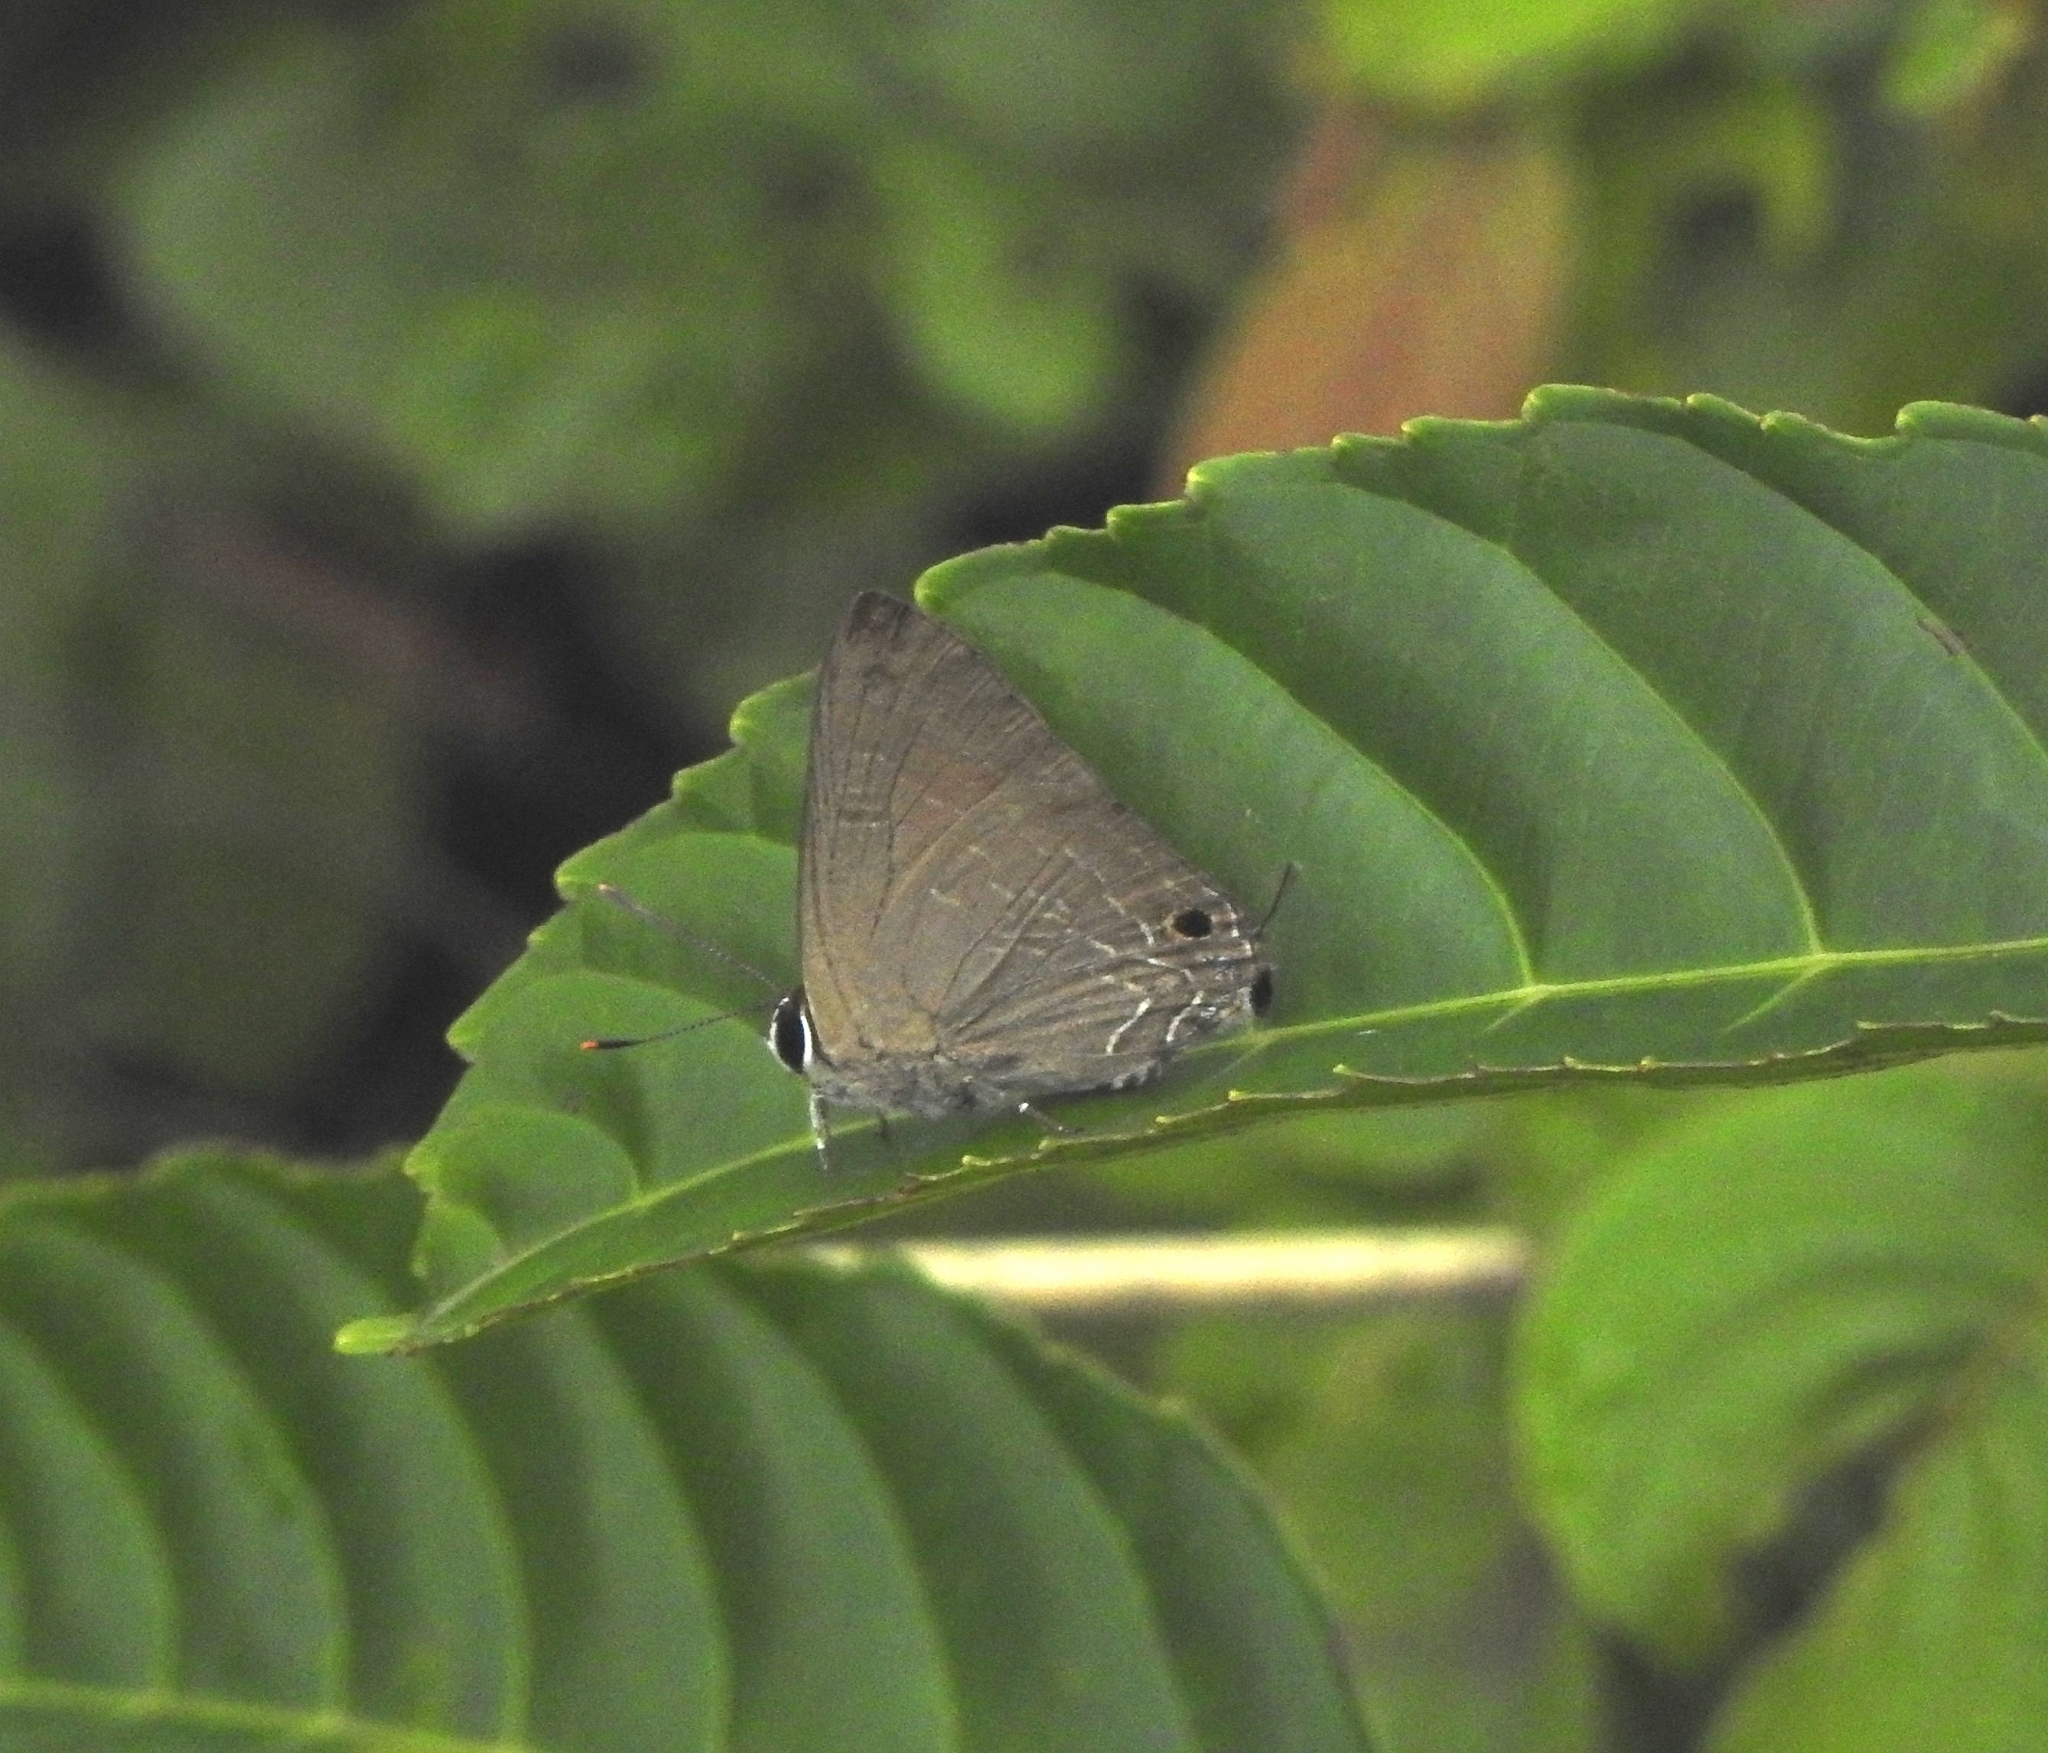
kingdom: Animalia
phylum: Arthropoda
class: Insecta
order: Lepidoptera
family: Lycaenidae
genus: Deudorix
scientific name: Deudorix epijarbas
